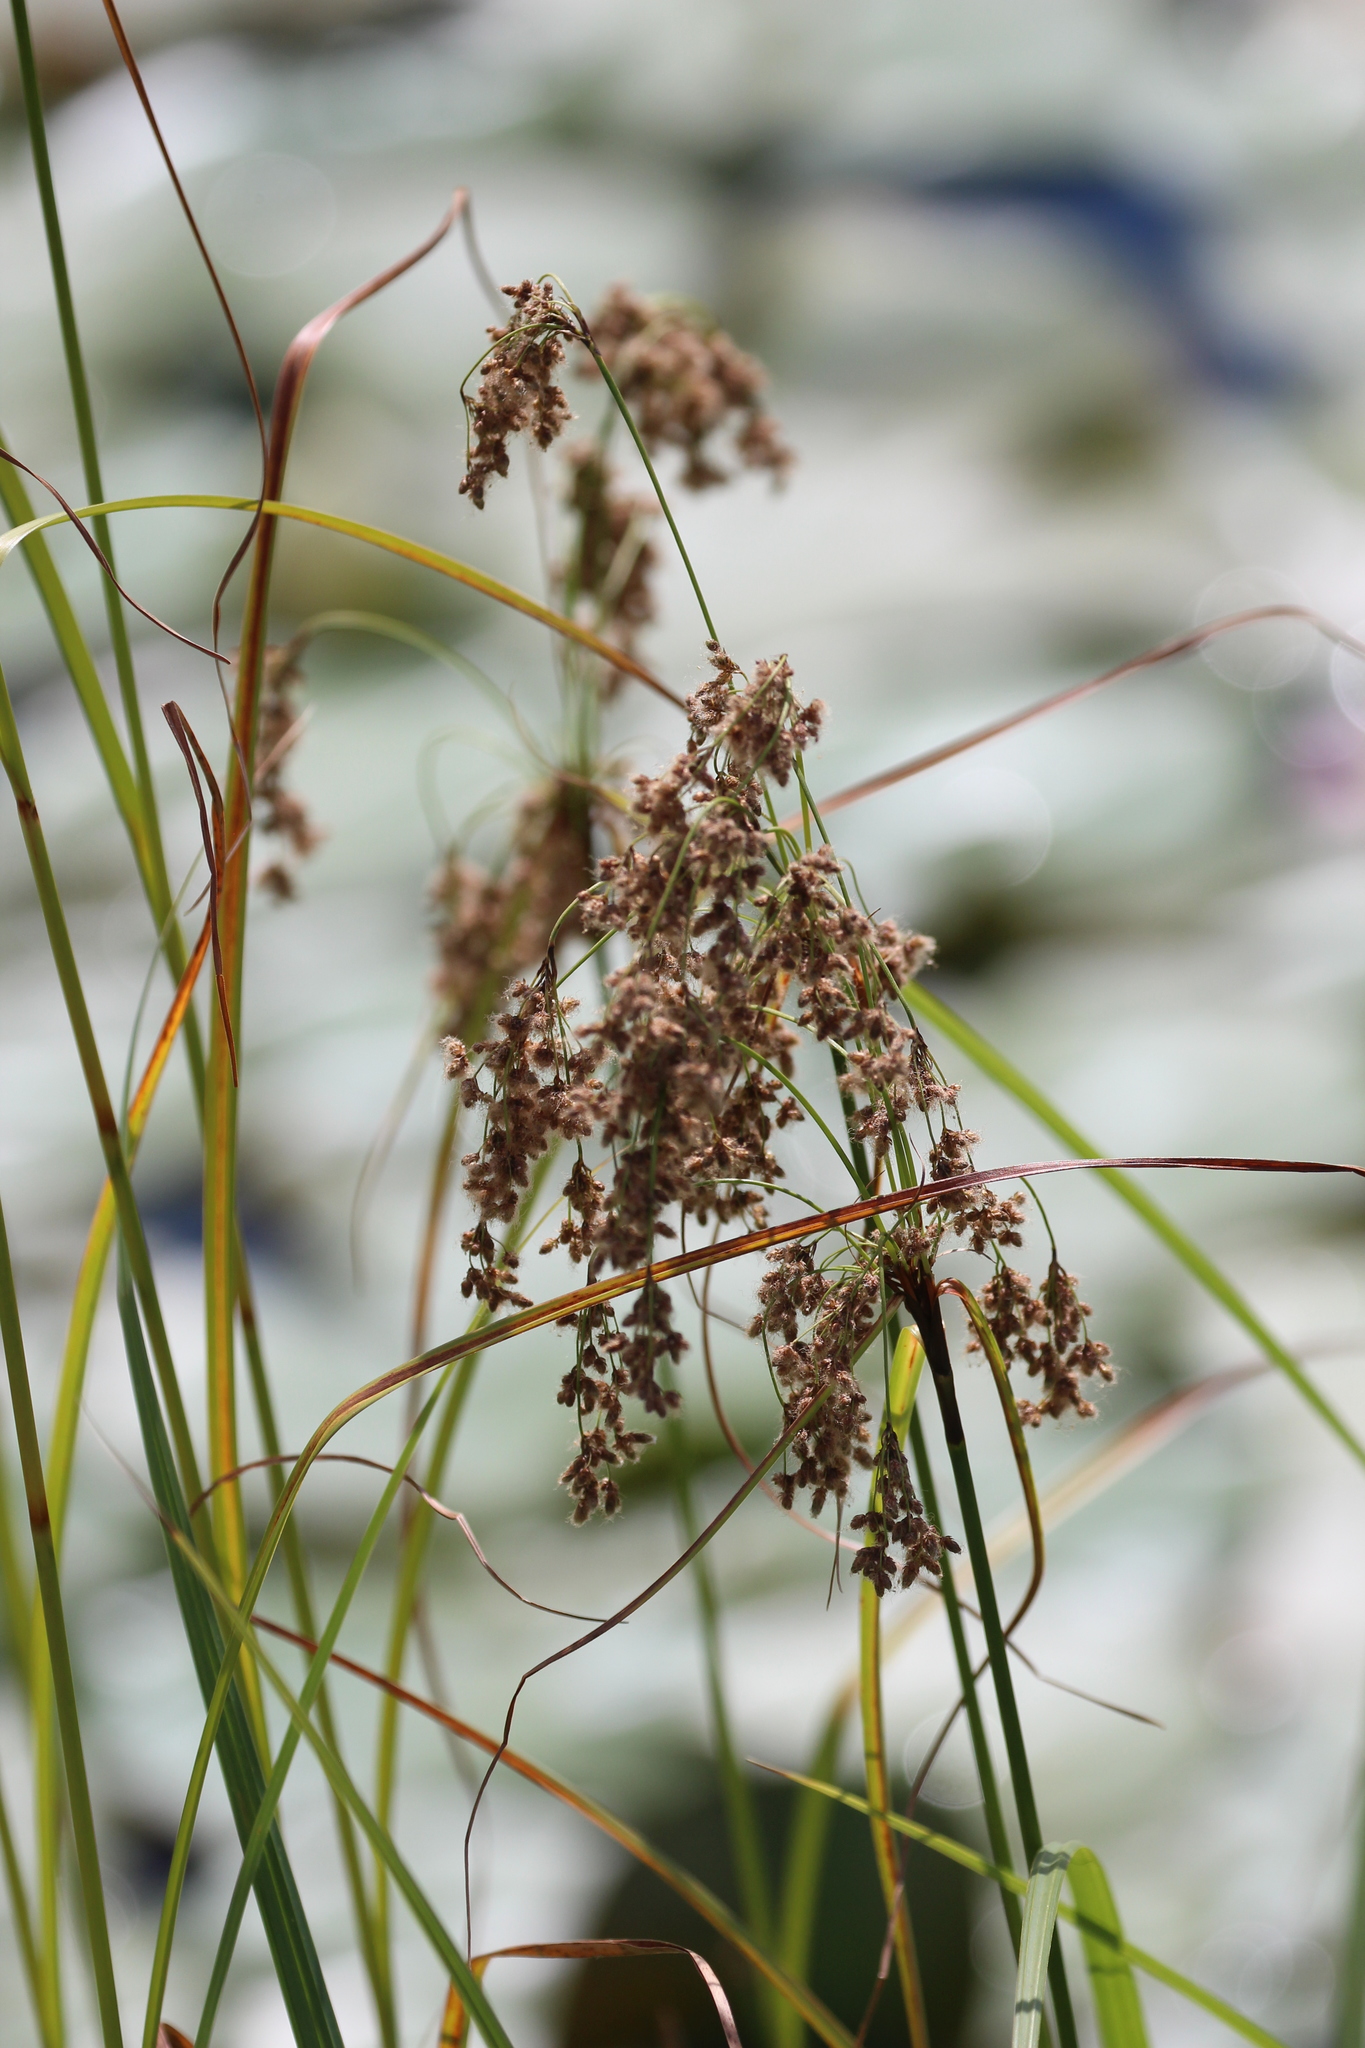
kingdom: Plantae
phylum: Tracheophyta
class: Liliopsida
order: Poales
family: Cyperaceae
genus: Scirpus
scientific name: Scirpus cyperinus
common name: Black-sheathed bulrush
